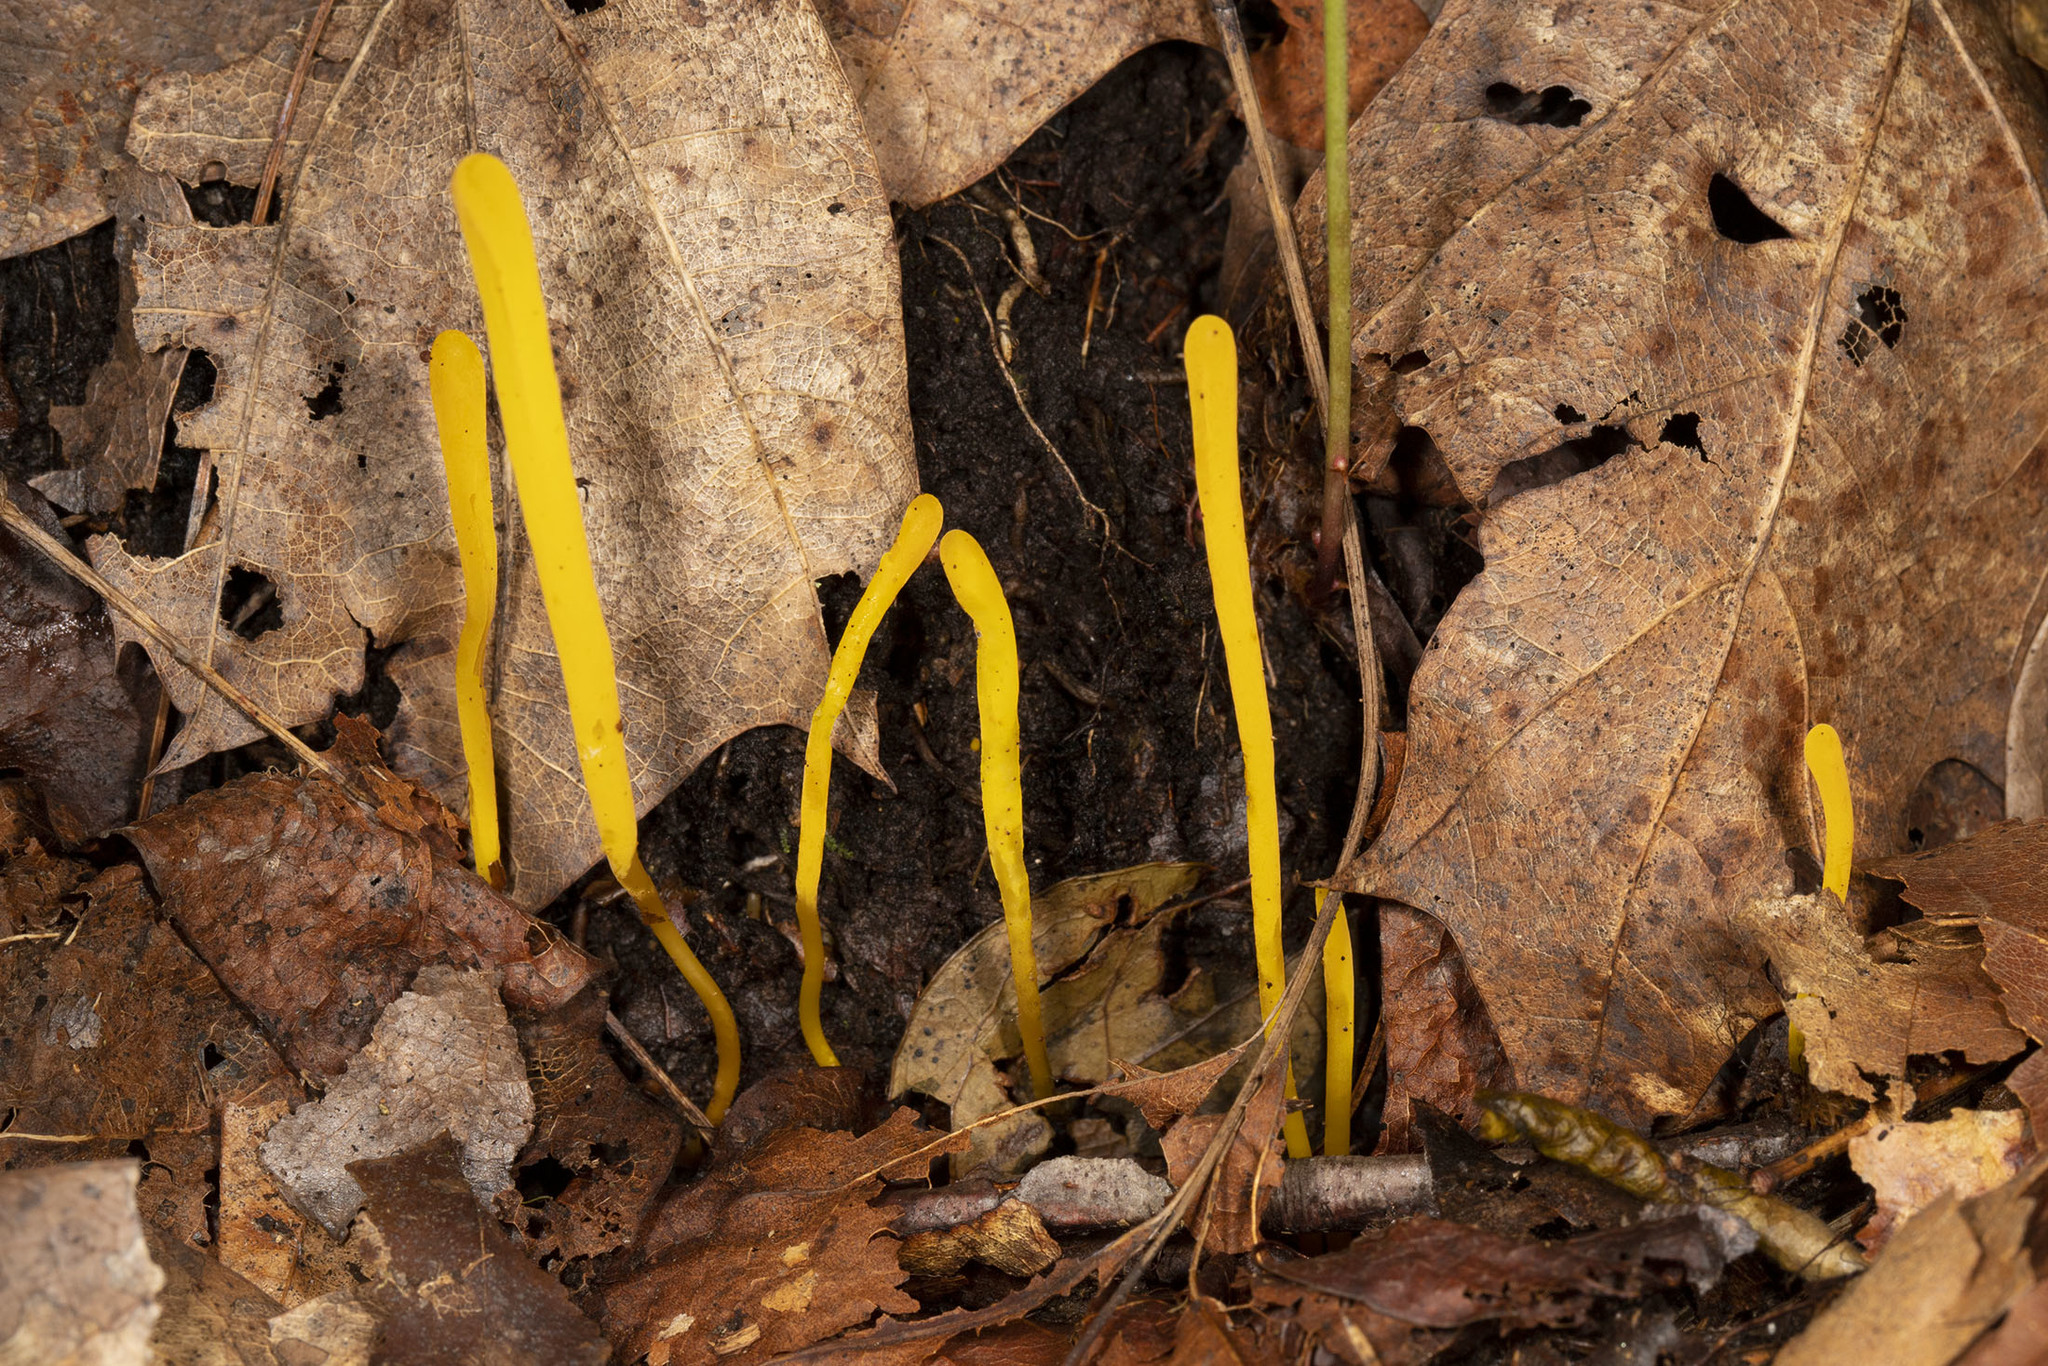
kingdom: Fungi
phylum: Basidiomycota
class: Agaricomycetes
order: Agaricales
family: Clavariaceae
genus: Clavulinopsis
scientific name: Clavulinopsis laeticolor
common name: Handsome club
